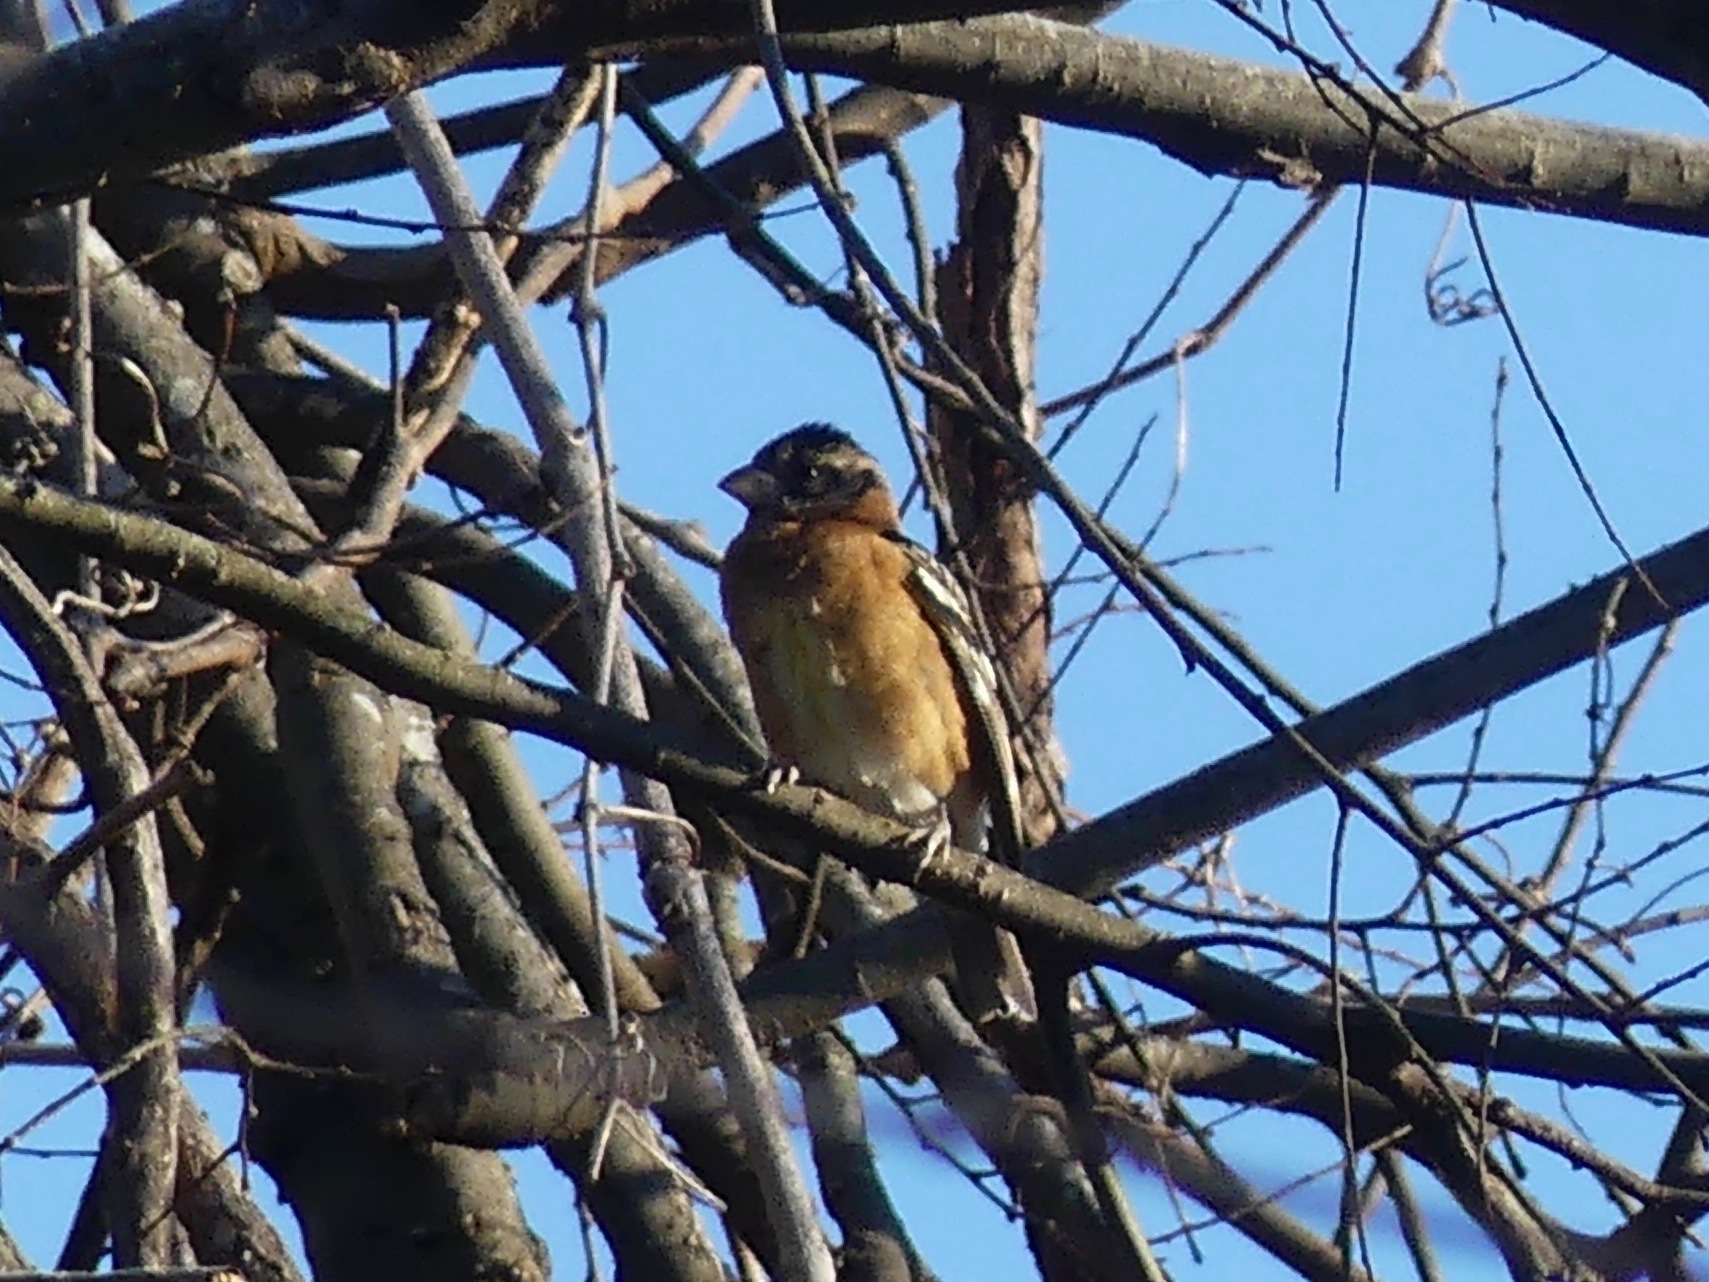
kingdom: Animalia
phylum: Chordata
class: Aves
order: Passeriformes
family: Cardinalidae
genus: Pheucticus
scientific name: Pheucticus melanocephalus
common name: Black-headed grosbeak
